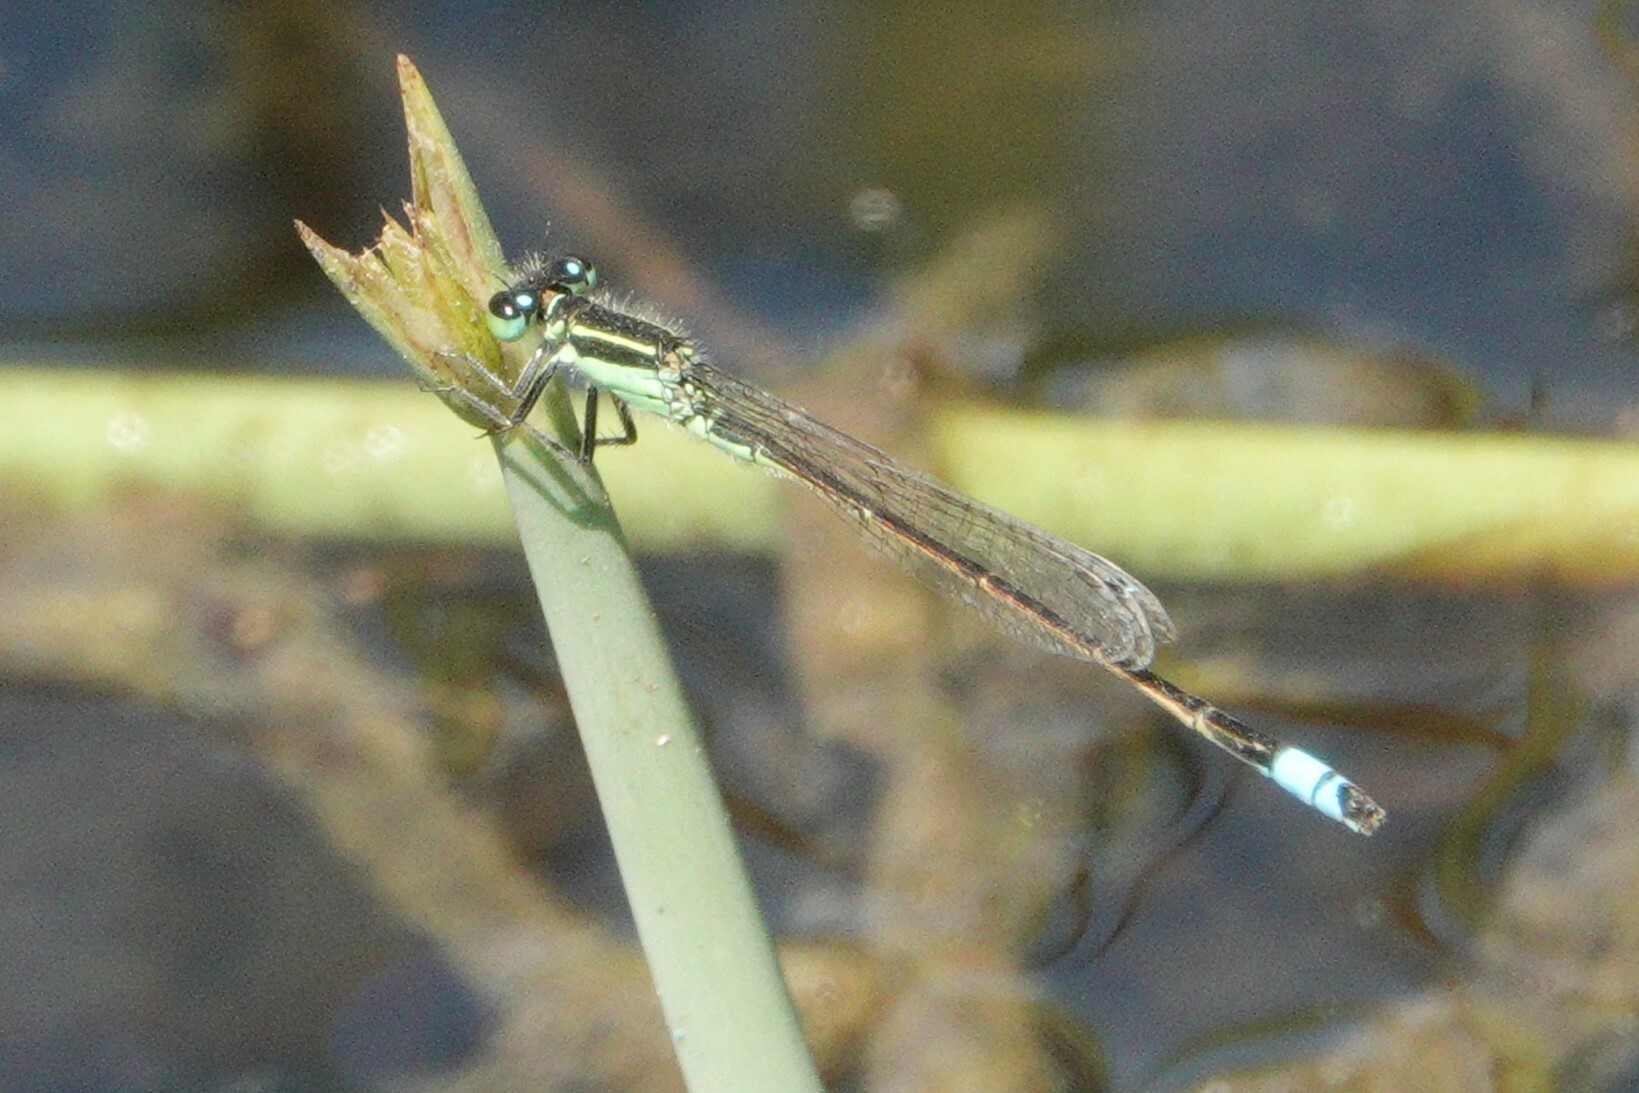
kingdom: Animalia
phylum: Arthropoda
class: Insecta
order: Odonata
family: Coenagrionidae
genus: Ischnura
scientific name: Ischnura ramburii
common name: Rambur's forktail
